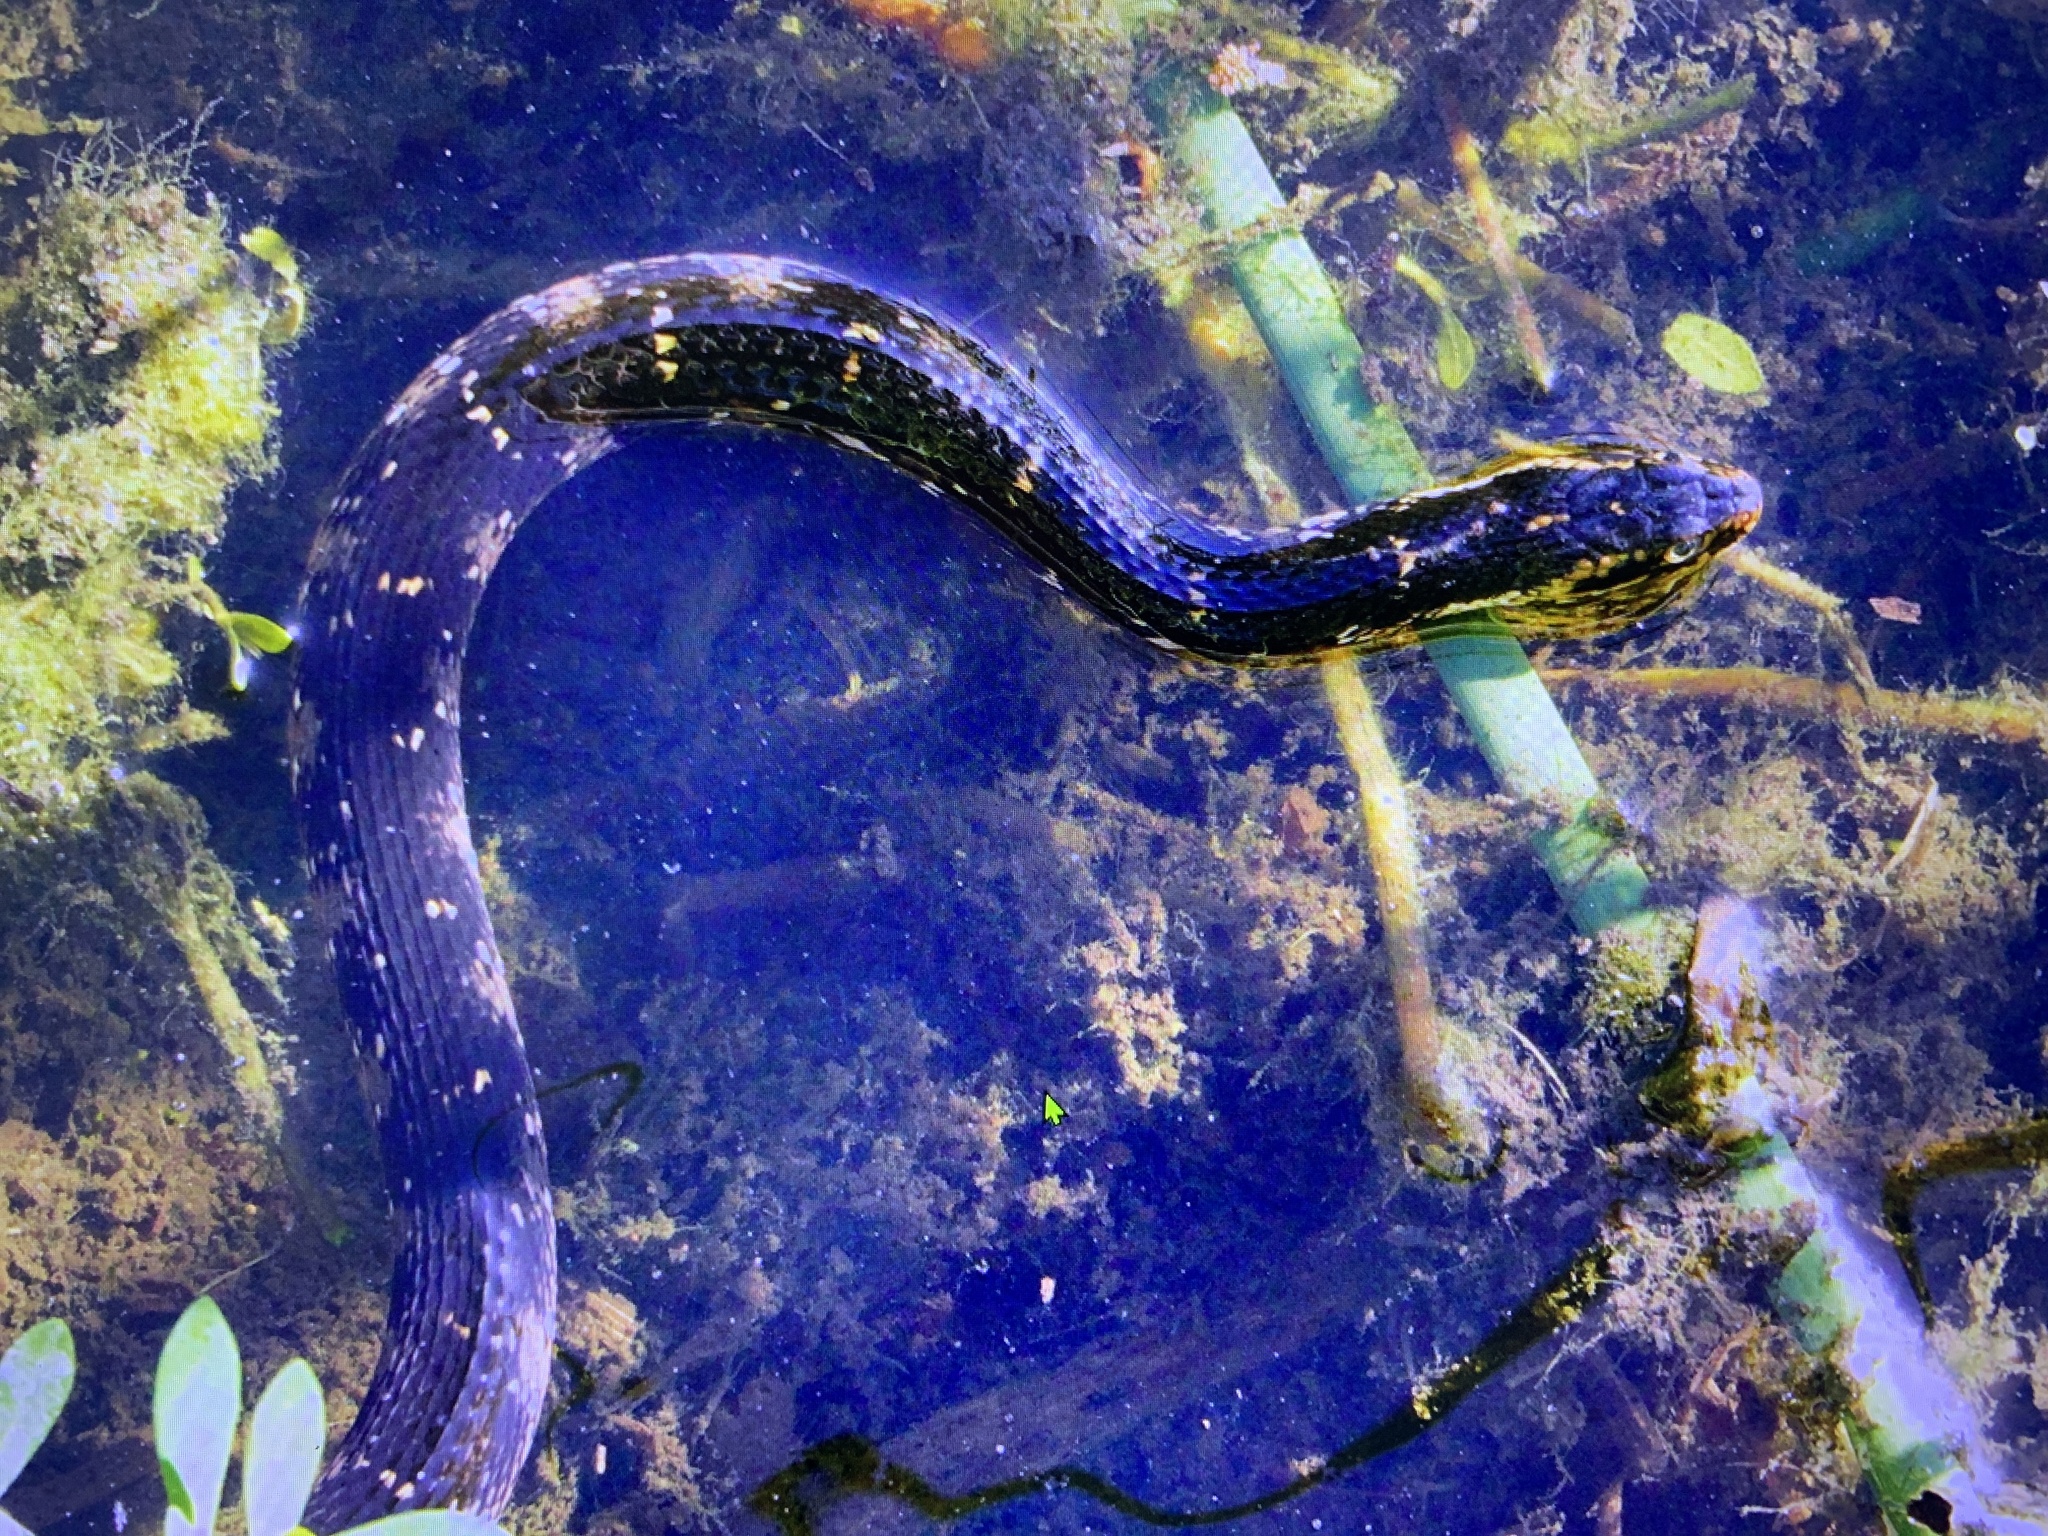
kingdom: Animalia
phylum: Chordata
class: Squamata
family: Colubridae
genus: Nerodia
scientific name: Nerodia fasciata
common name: Southern water snake
